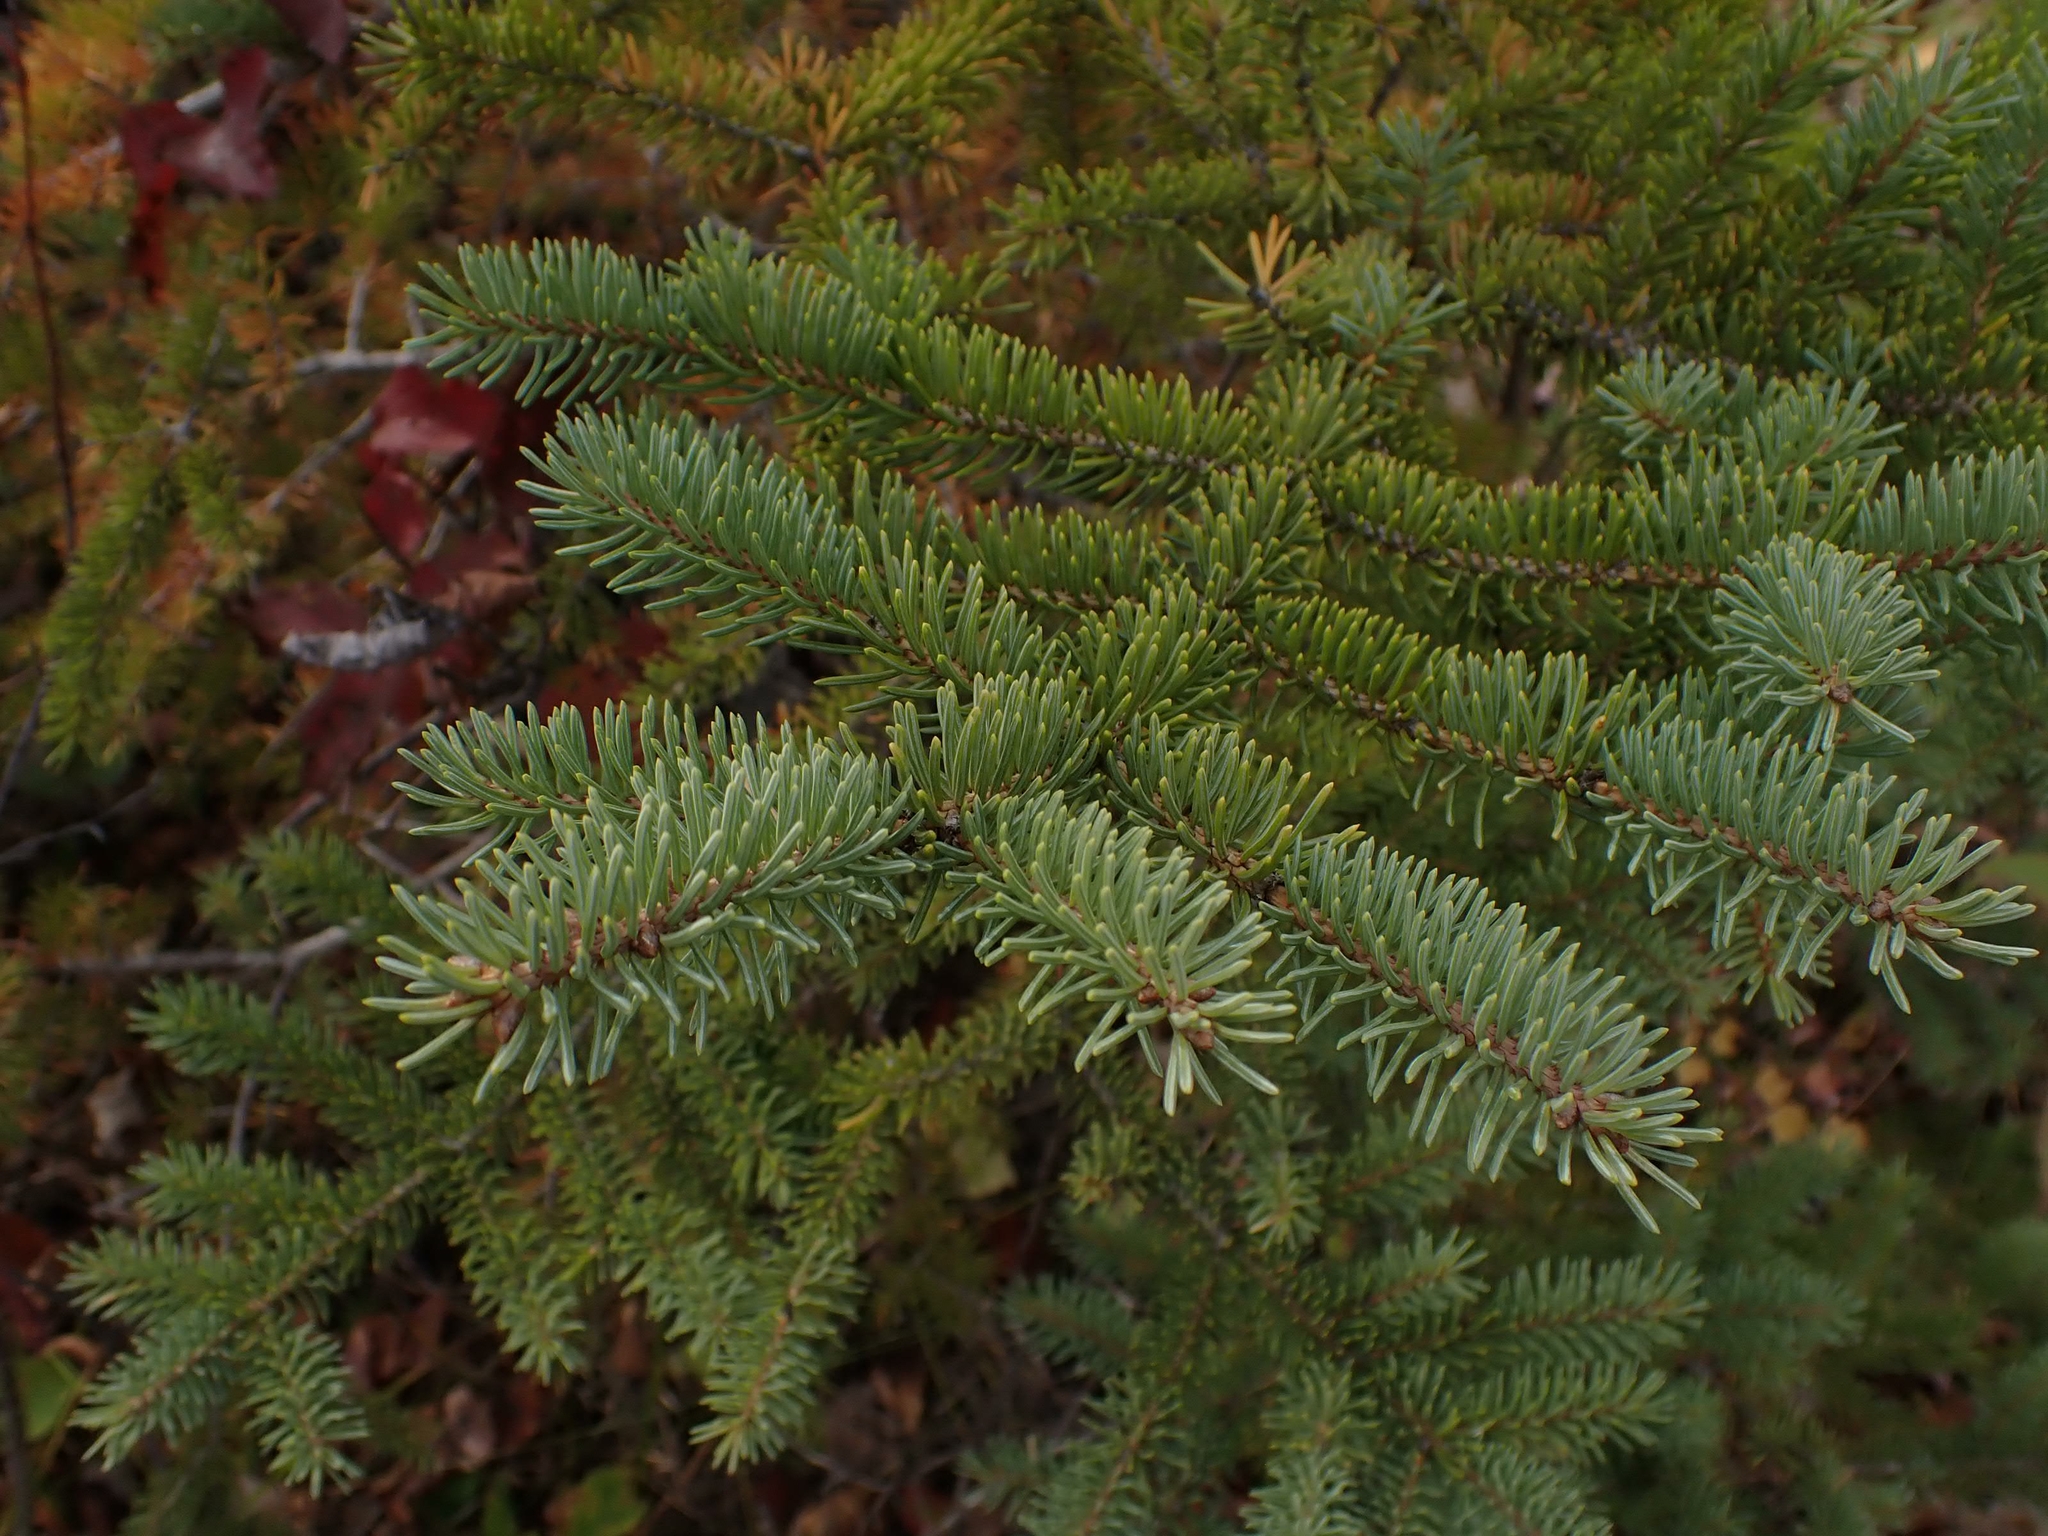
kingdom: Plantae
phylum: Tracheophyta
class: Pinopsida
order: Pinales
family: Pinaceae
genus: Picea
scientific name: Picea glauca
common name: White spruce
